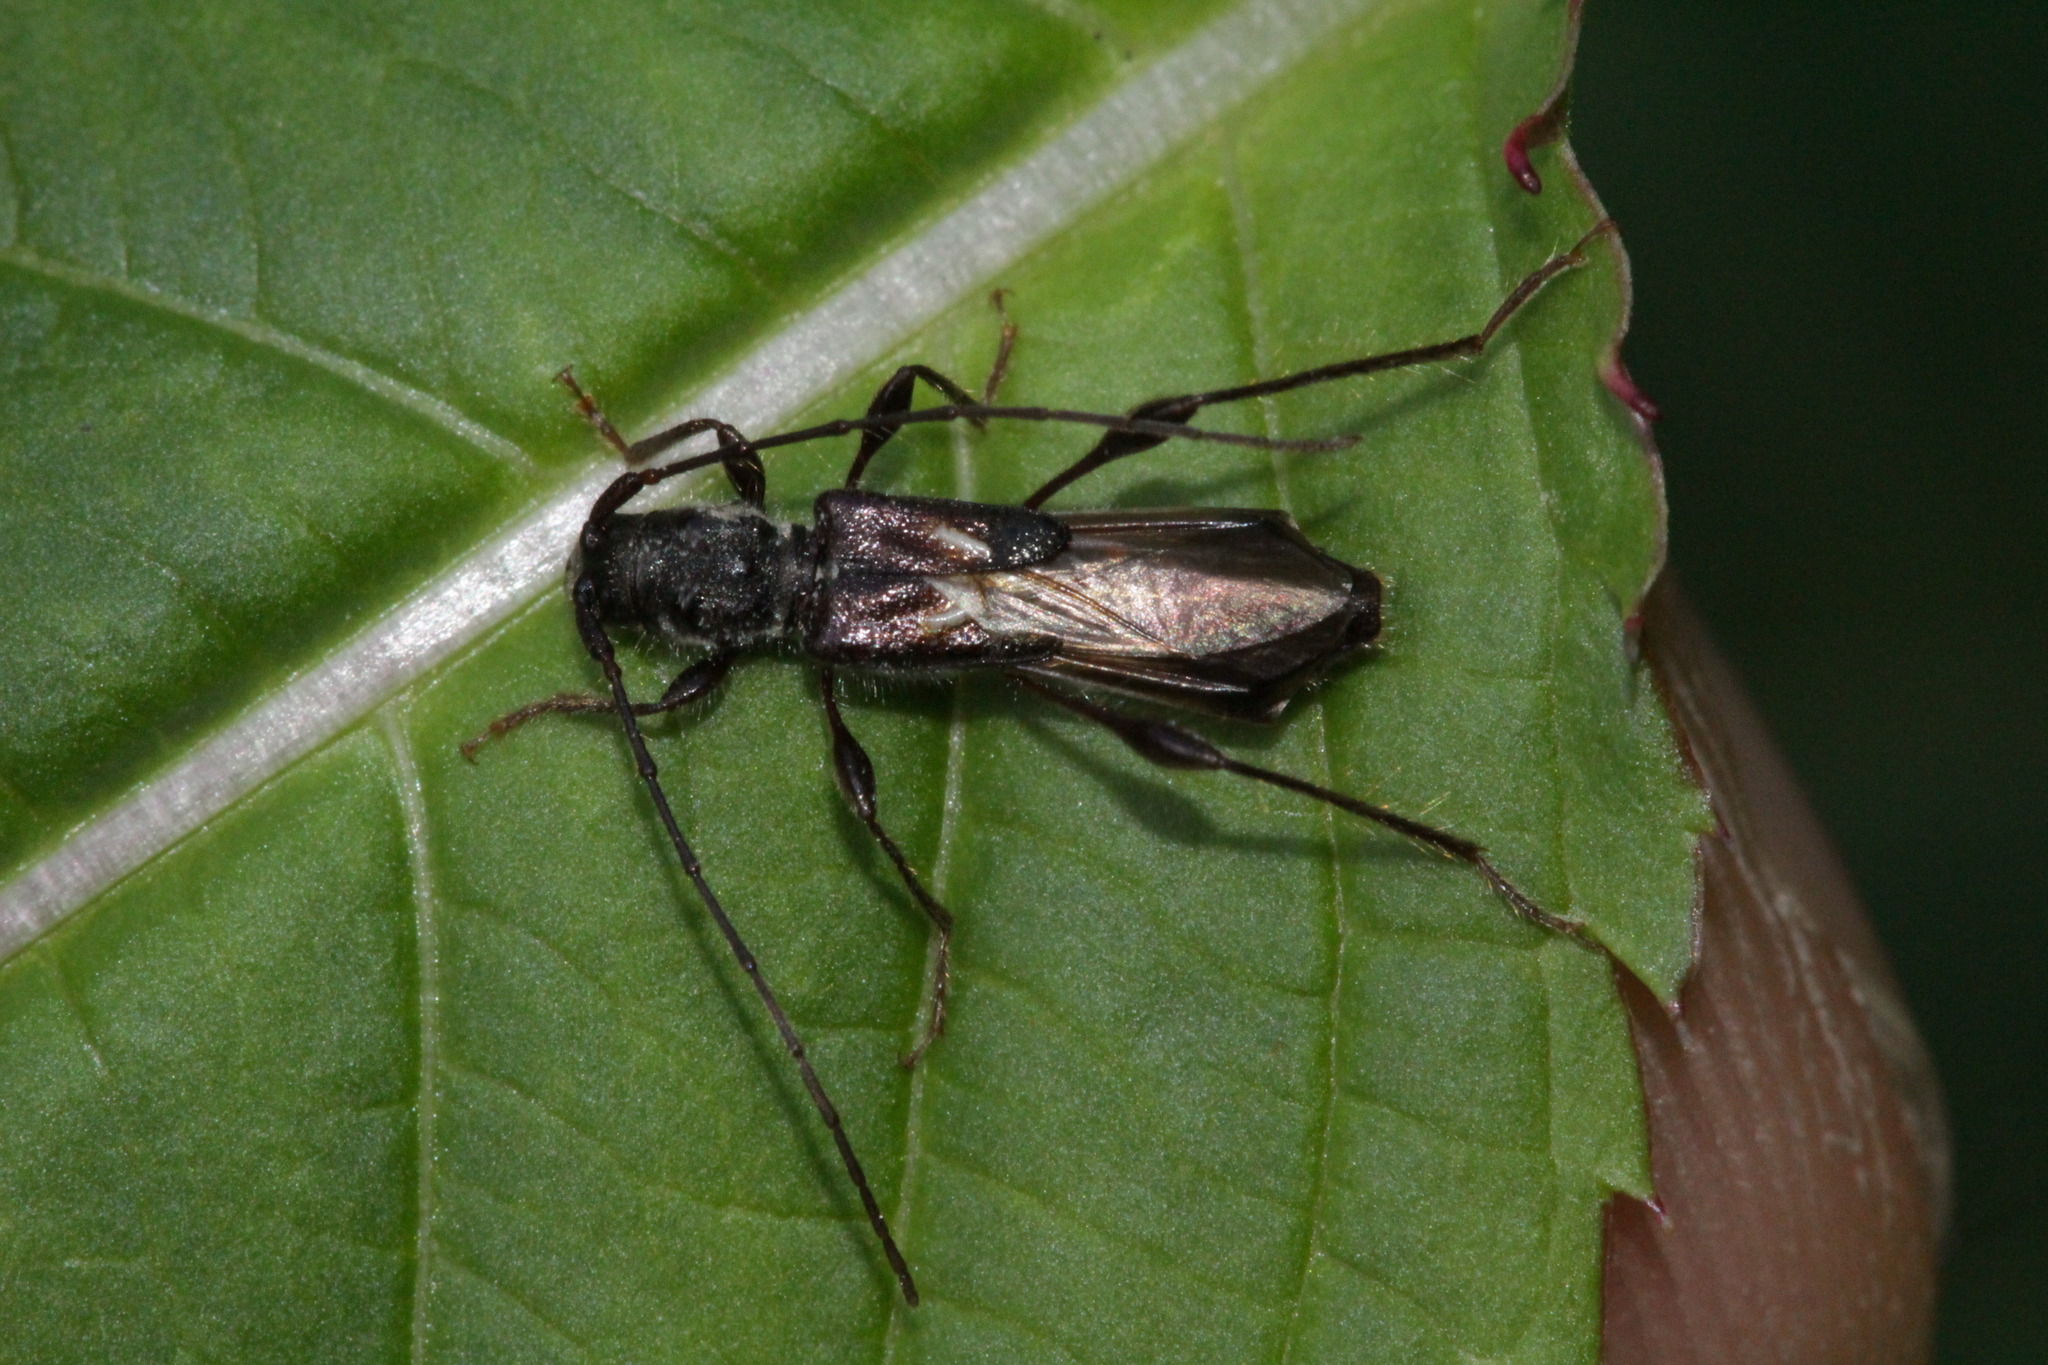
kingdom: Animalia
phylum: Arthropoda
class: Insecta
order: Coleoptera
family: Cerambycidae
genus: Molorchus
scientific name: Molorchus minor
